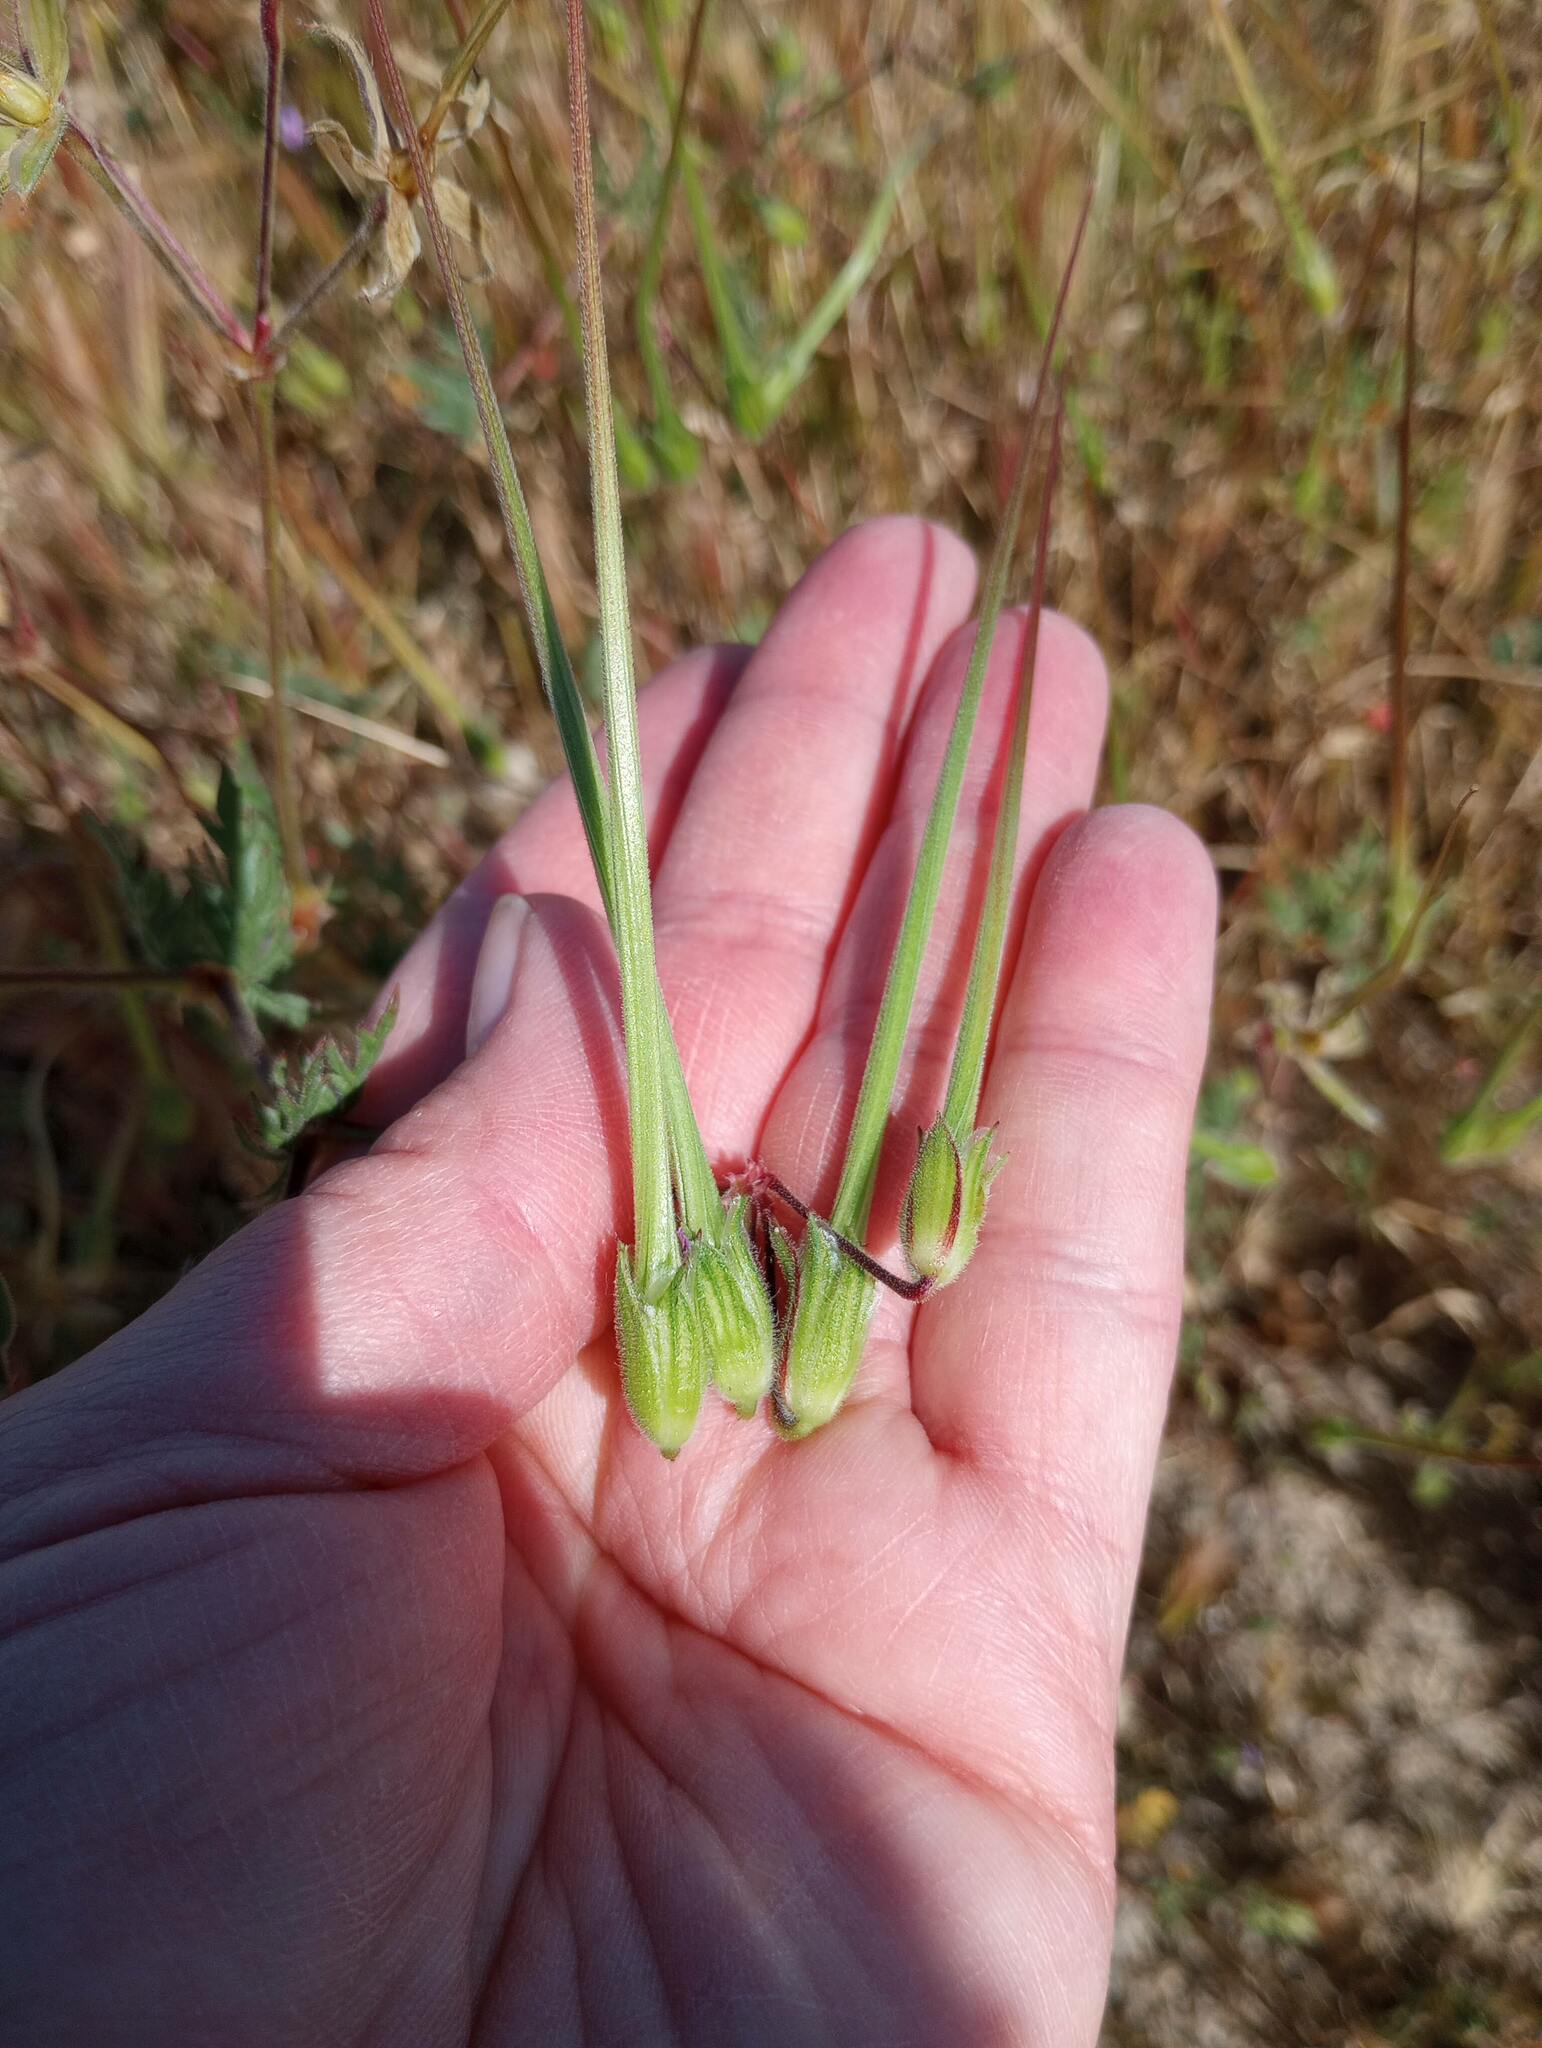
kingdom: Plantae
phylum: Tracheophyta
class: Magnoliopsida
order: Geraniales
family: Geraniaceae
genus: Erodium
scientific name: Erodium botrys
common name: Mediterranean stork's-bill
